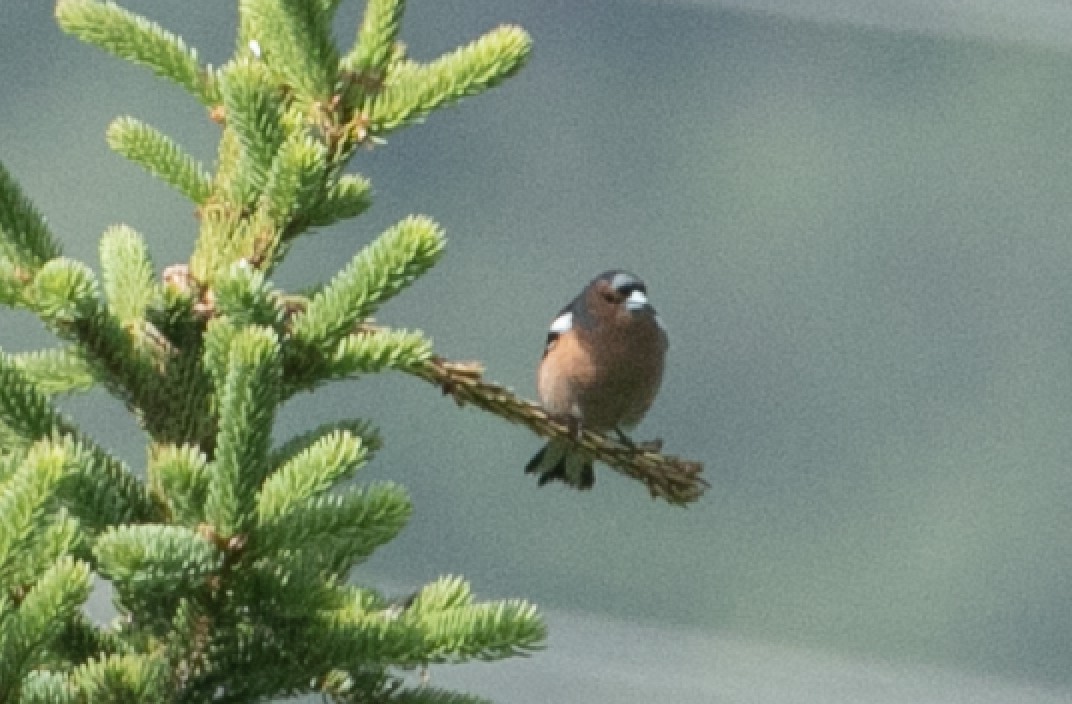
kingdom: Animalia
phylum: Chordata
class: Aves
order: Passeriformes
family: Fringillidae
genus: Fringilla
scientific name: Fringilla coelebs
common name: Common chaffinch
